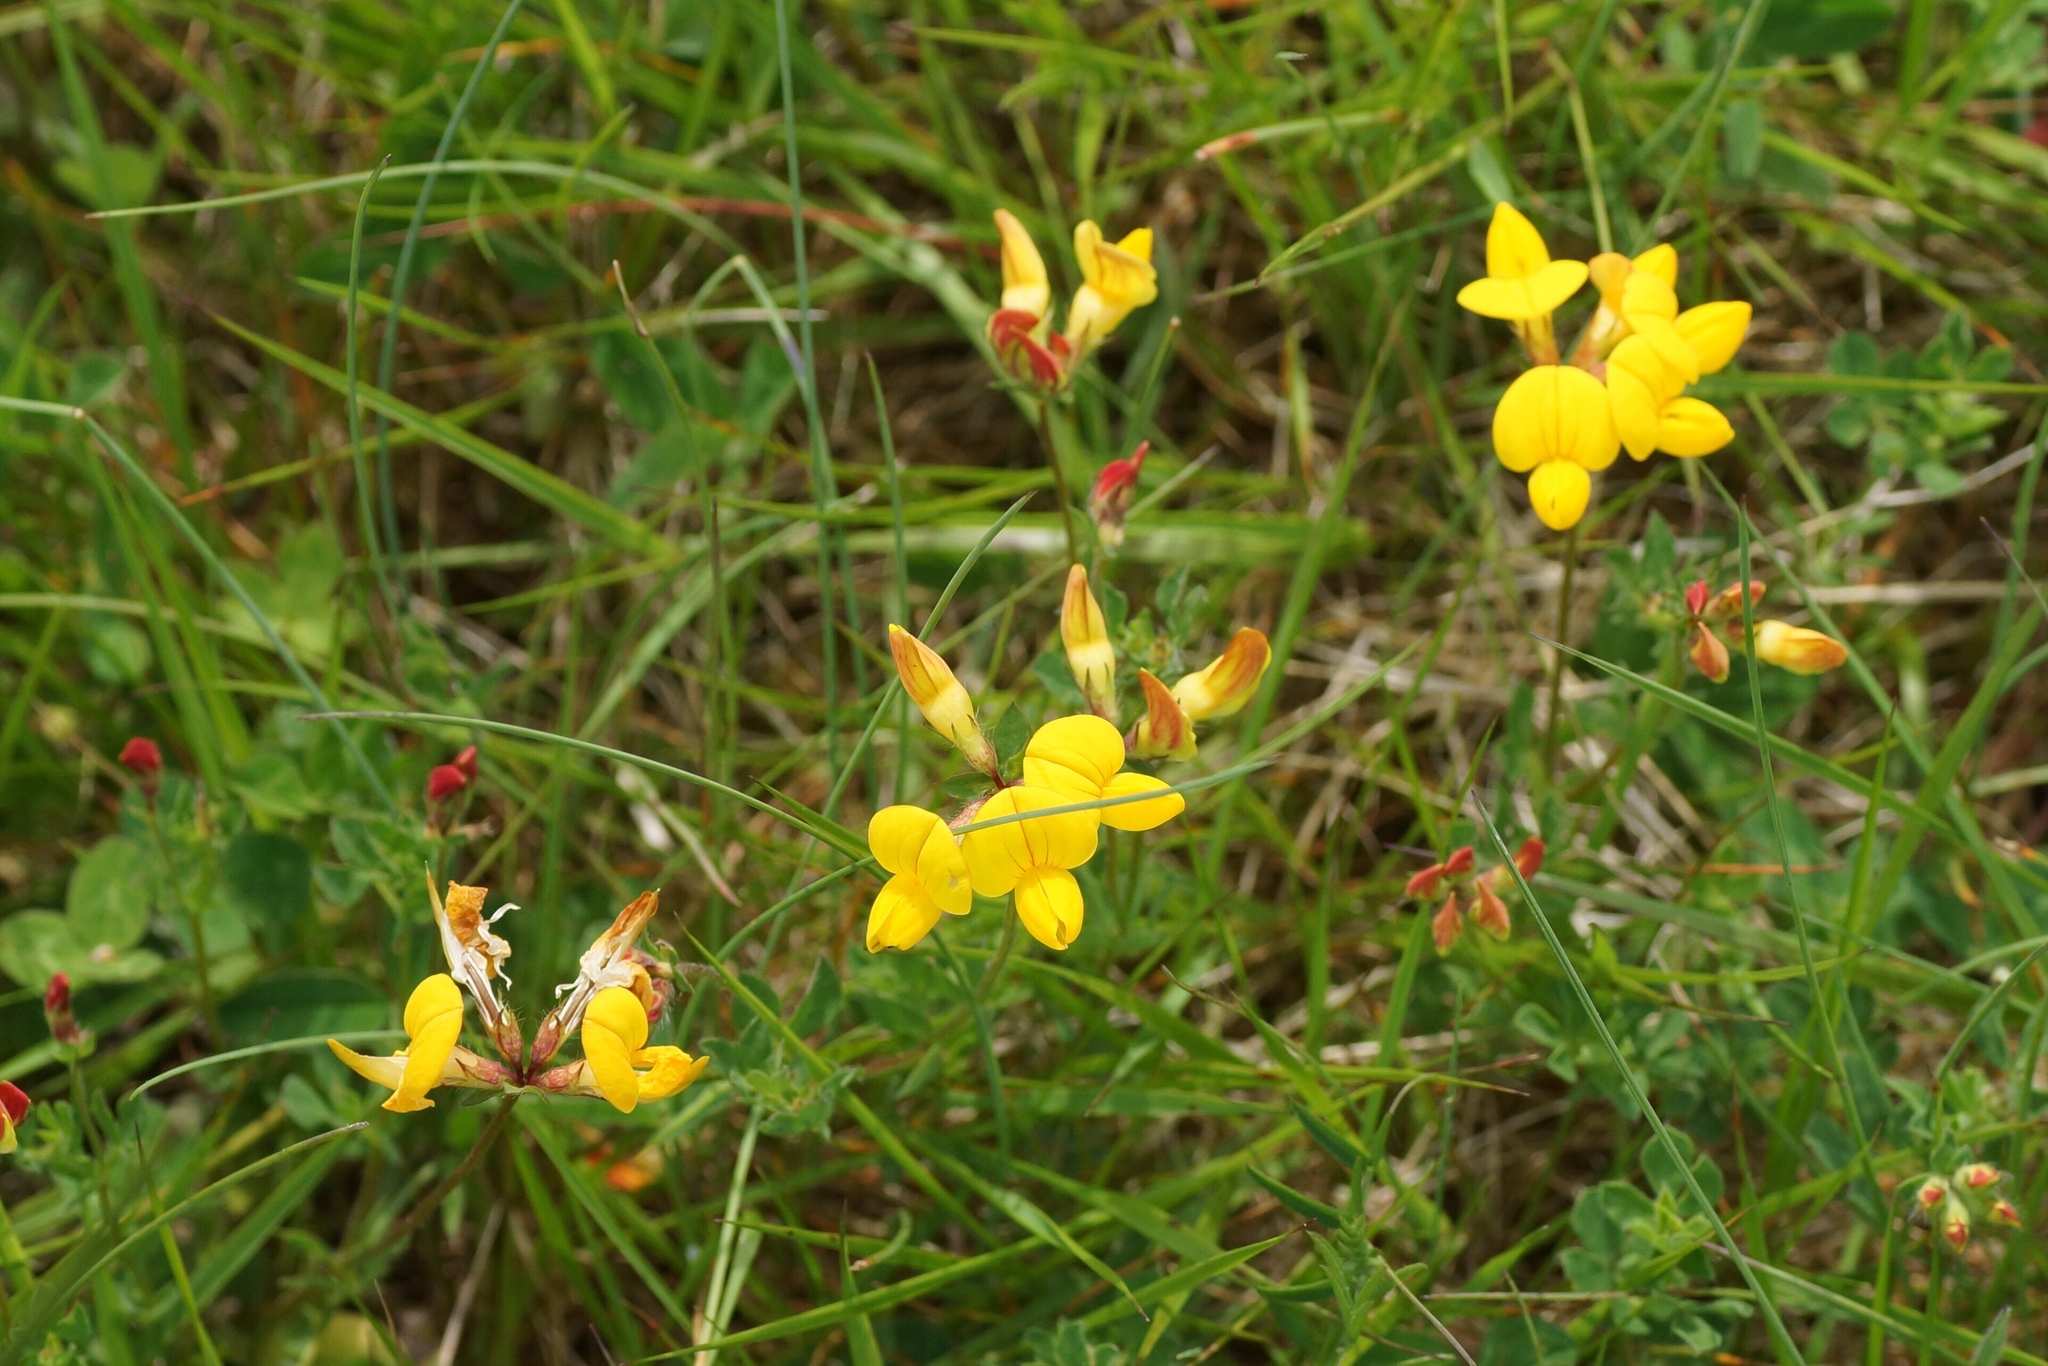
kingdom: Plantae
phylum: Tracheophyta
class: Magnoliopsida
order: Fabales
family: Fabaceae
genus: Lotus
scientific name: Lotus corniculatus
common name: Common bird's-foot-trefoil
